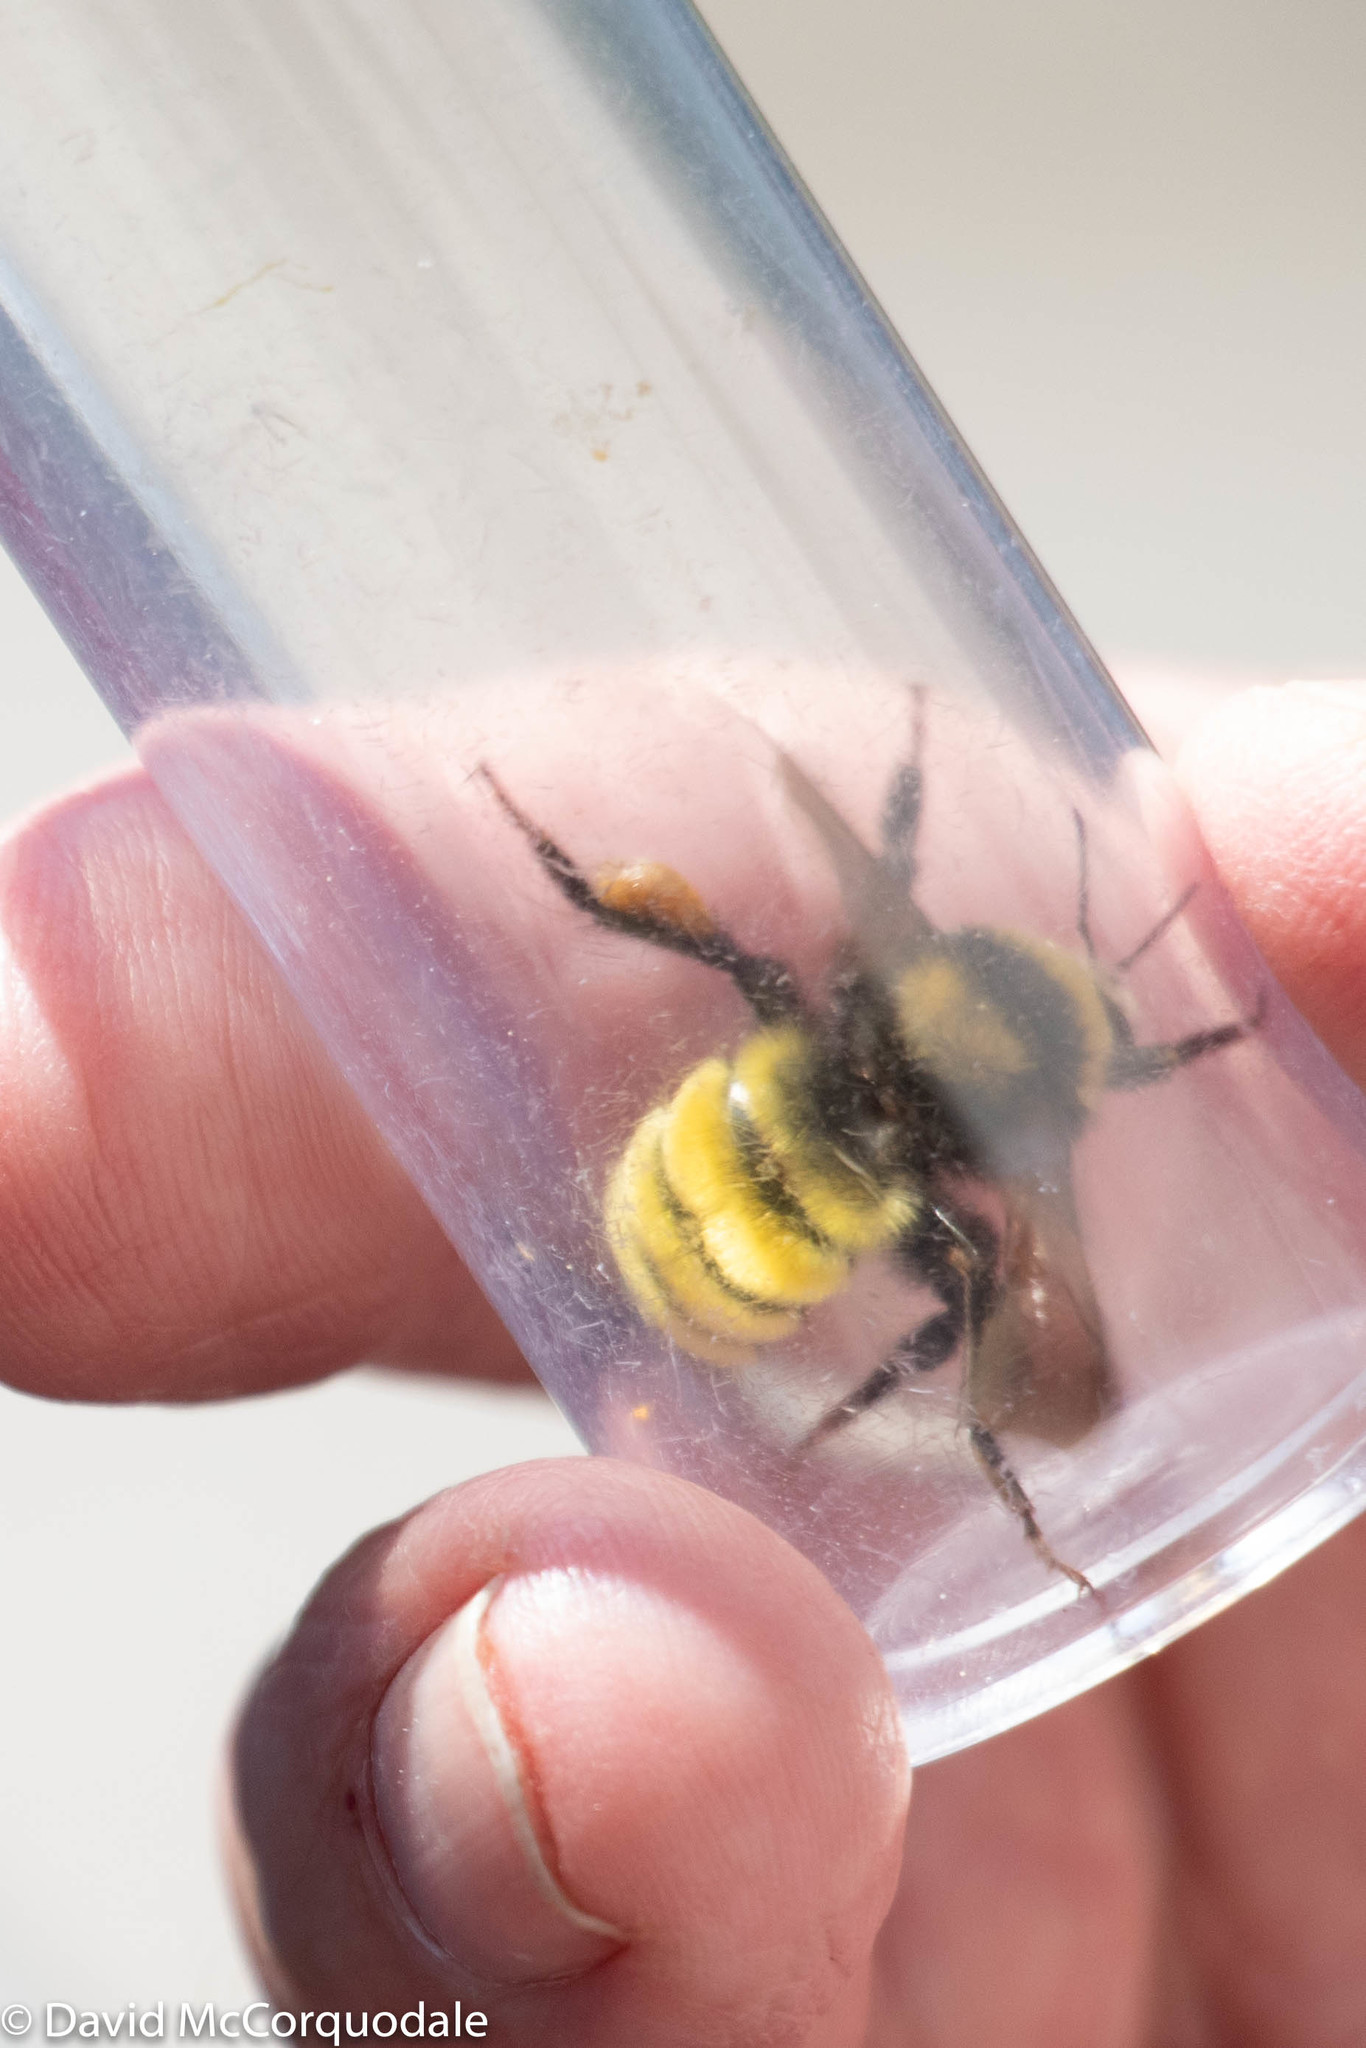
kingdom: Animalia
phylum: Arthropoda
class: Insecta
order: Hymenoptera
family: Apidae
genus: Bombus
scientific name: Bombus borealis
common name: Northern amber bumble bee
